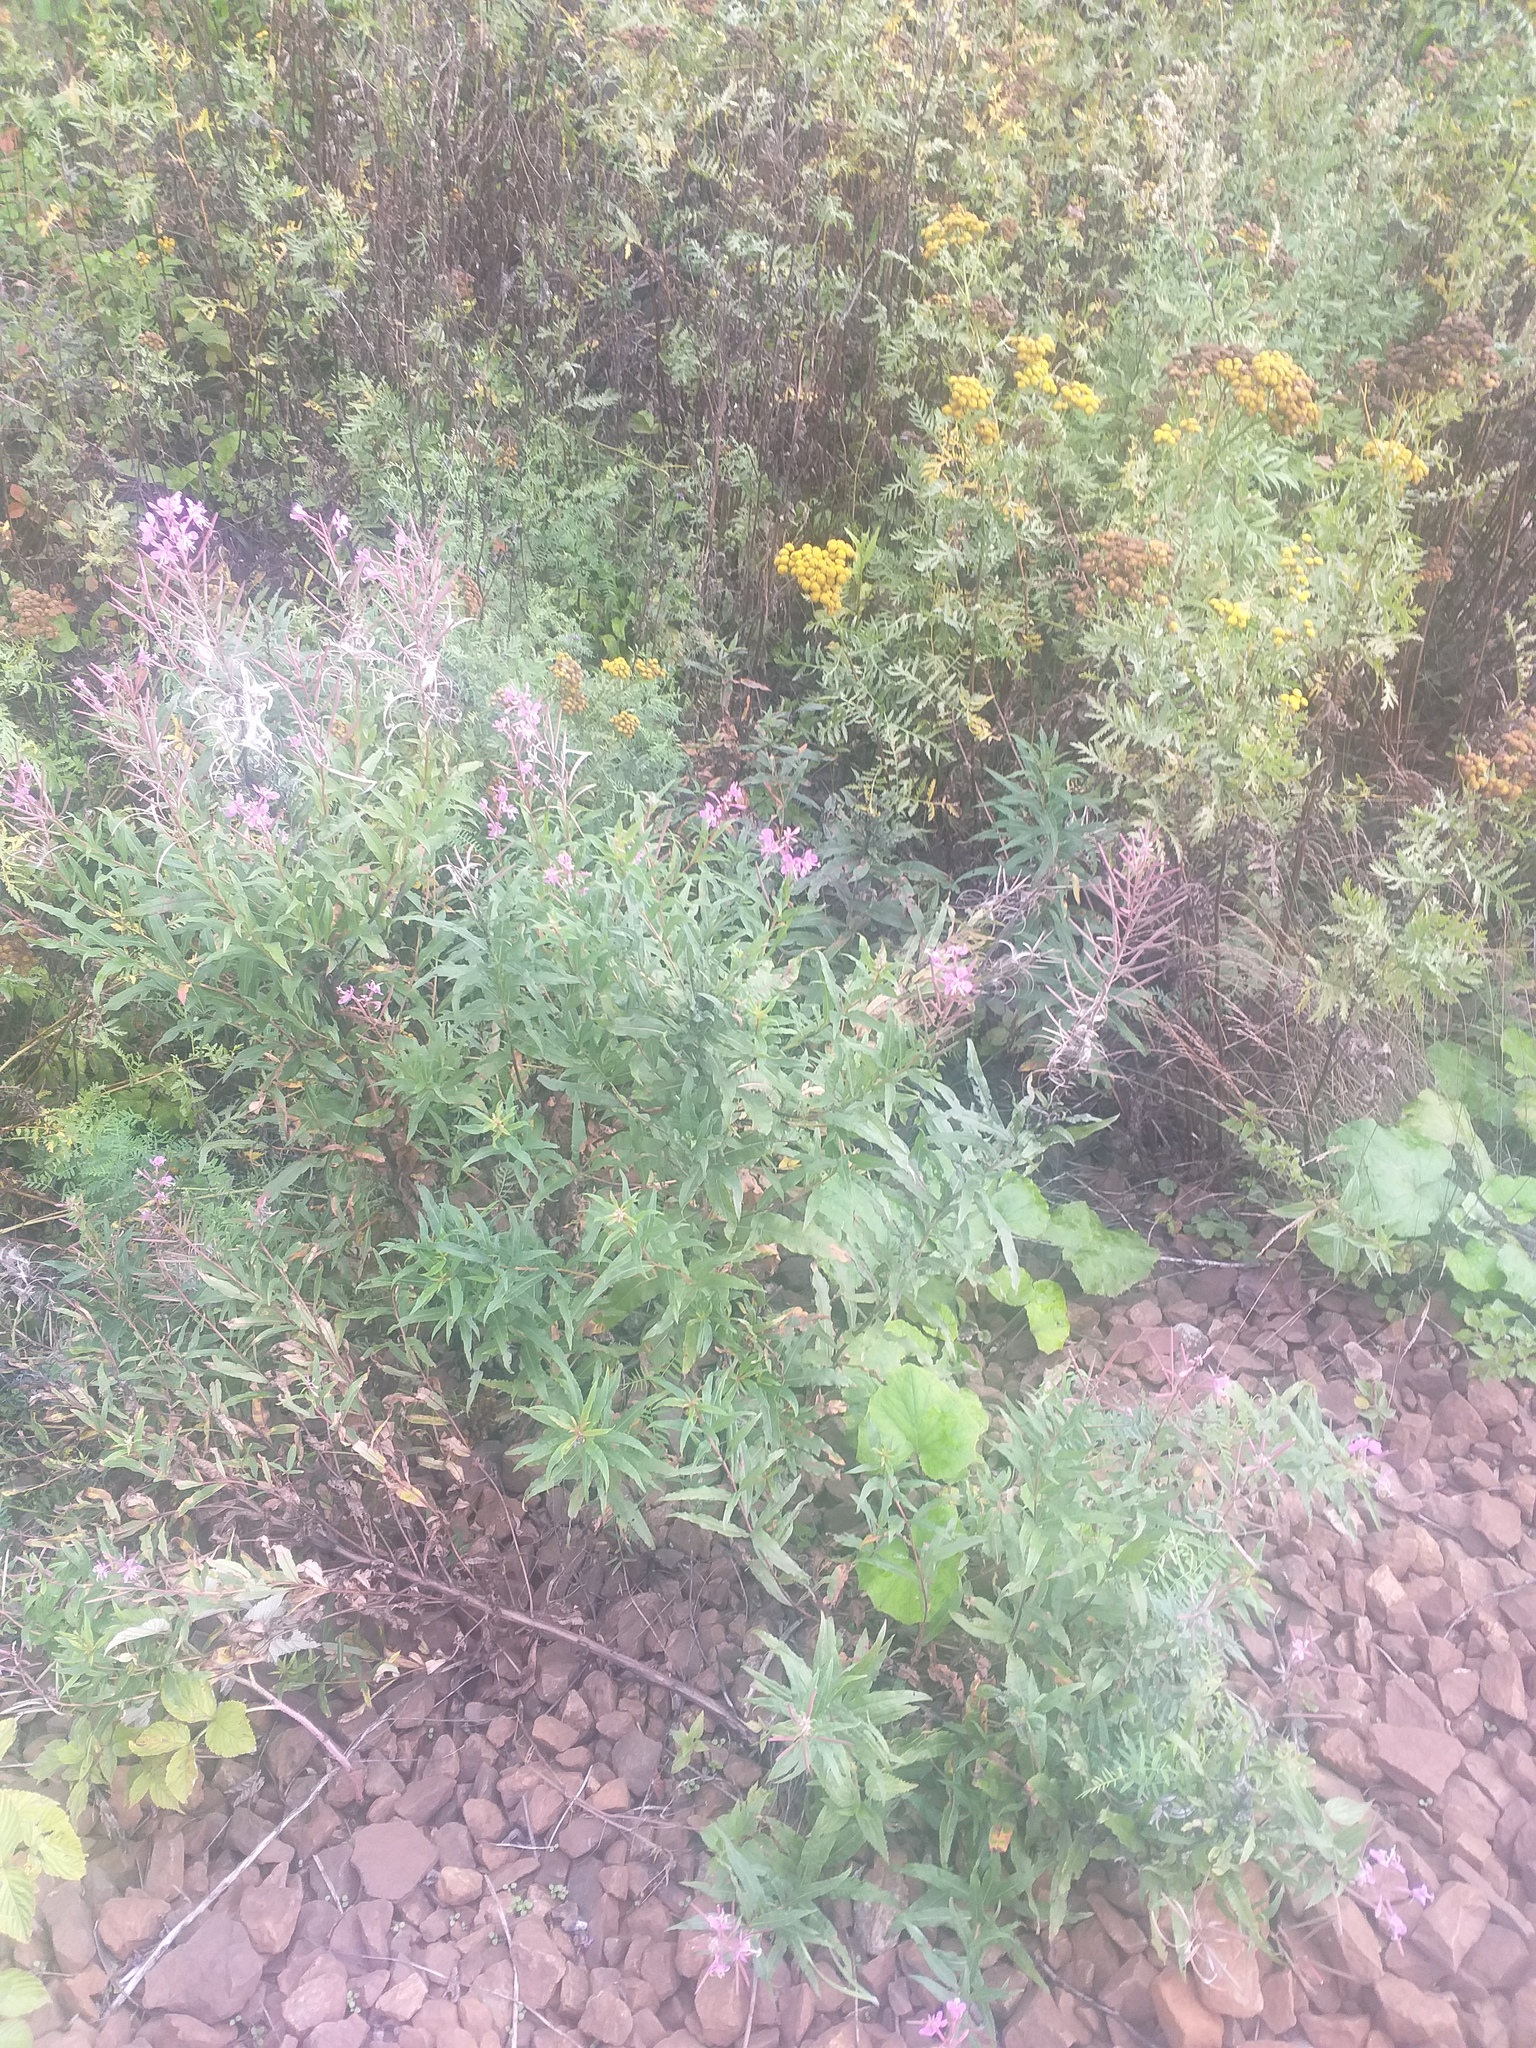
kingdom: Plantae
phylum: Tracheophyta
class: Magnoliopsida
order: Myrtales
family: Onagraceae
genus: Chamaenerion
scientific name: Chamaenerion angustifolium
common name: Fireweed
